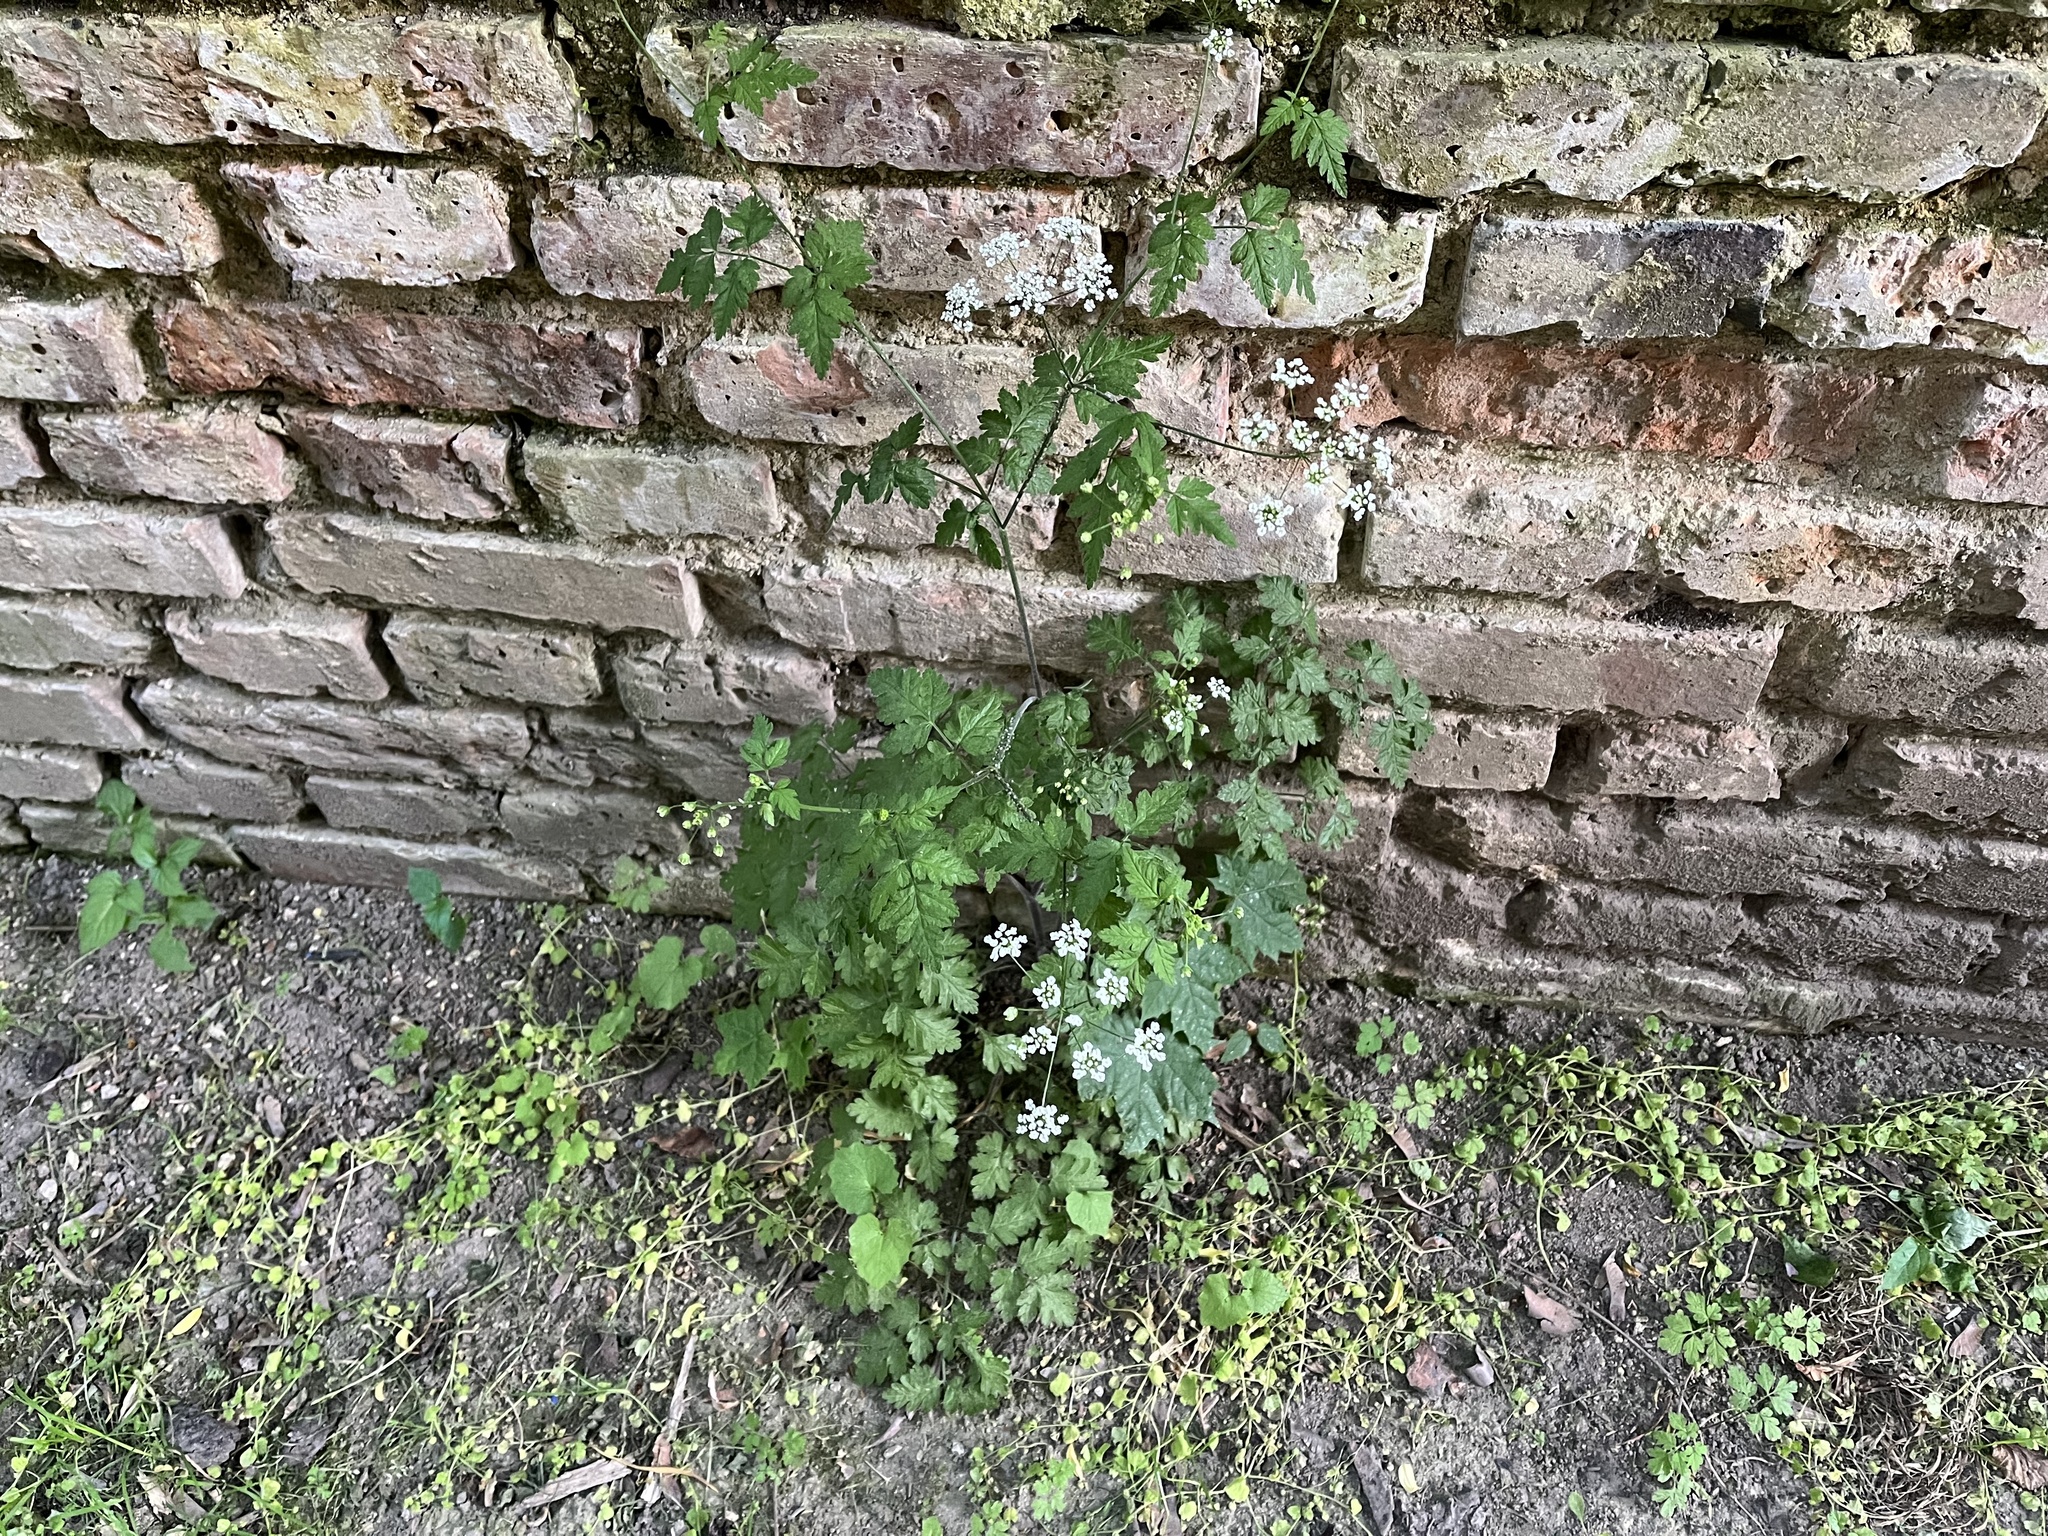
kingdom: Plantae
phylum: Tracheophyta
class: Magnoliopsida
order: Apiales
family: Apiaceae
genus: Chaerophyllum
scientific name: Chaerophyllum temulum
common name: Rough chervil
